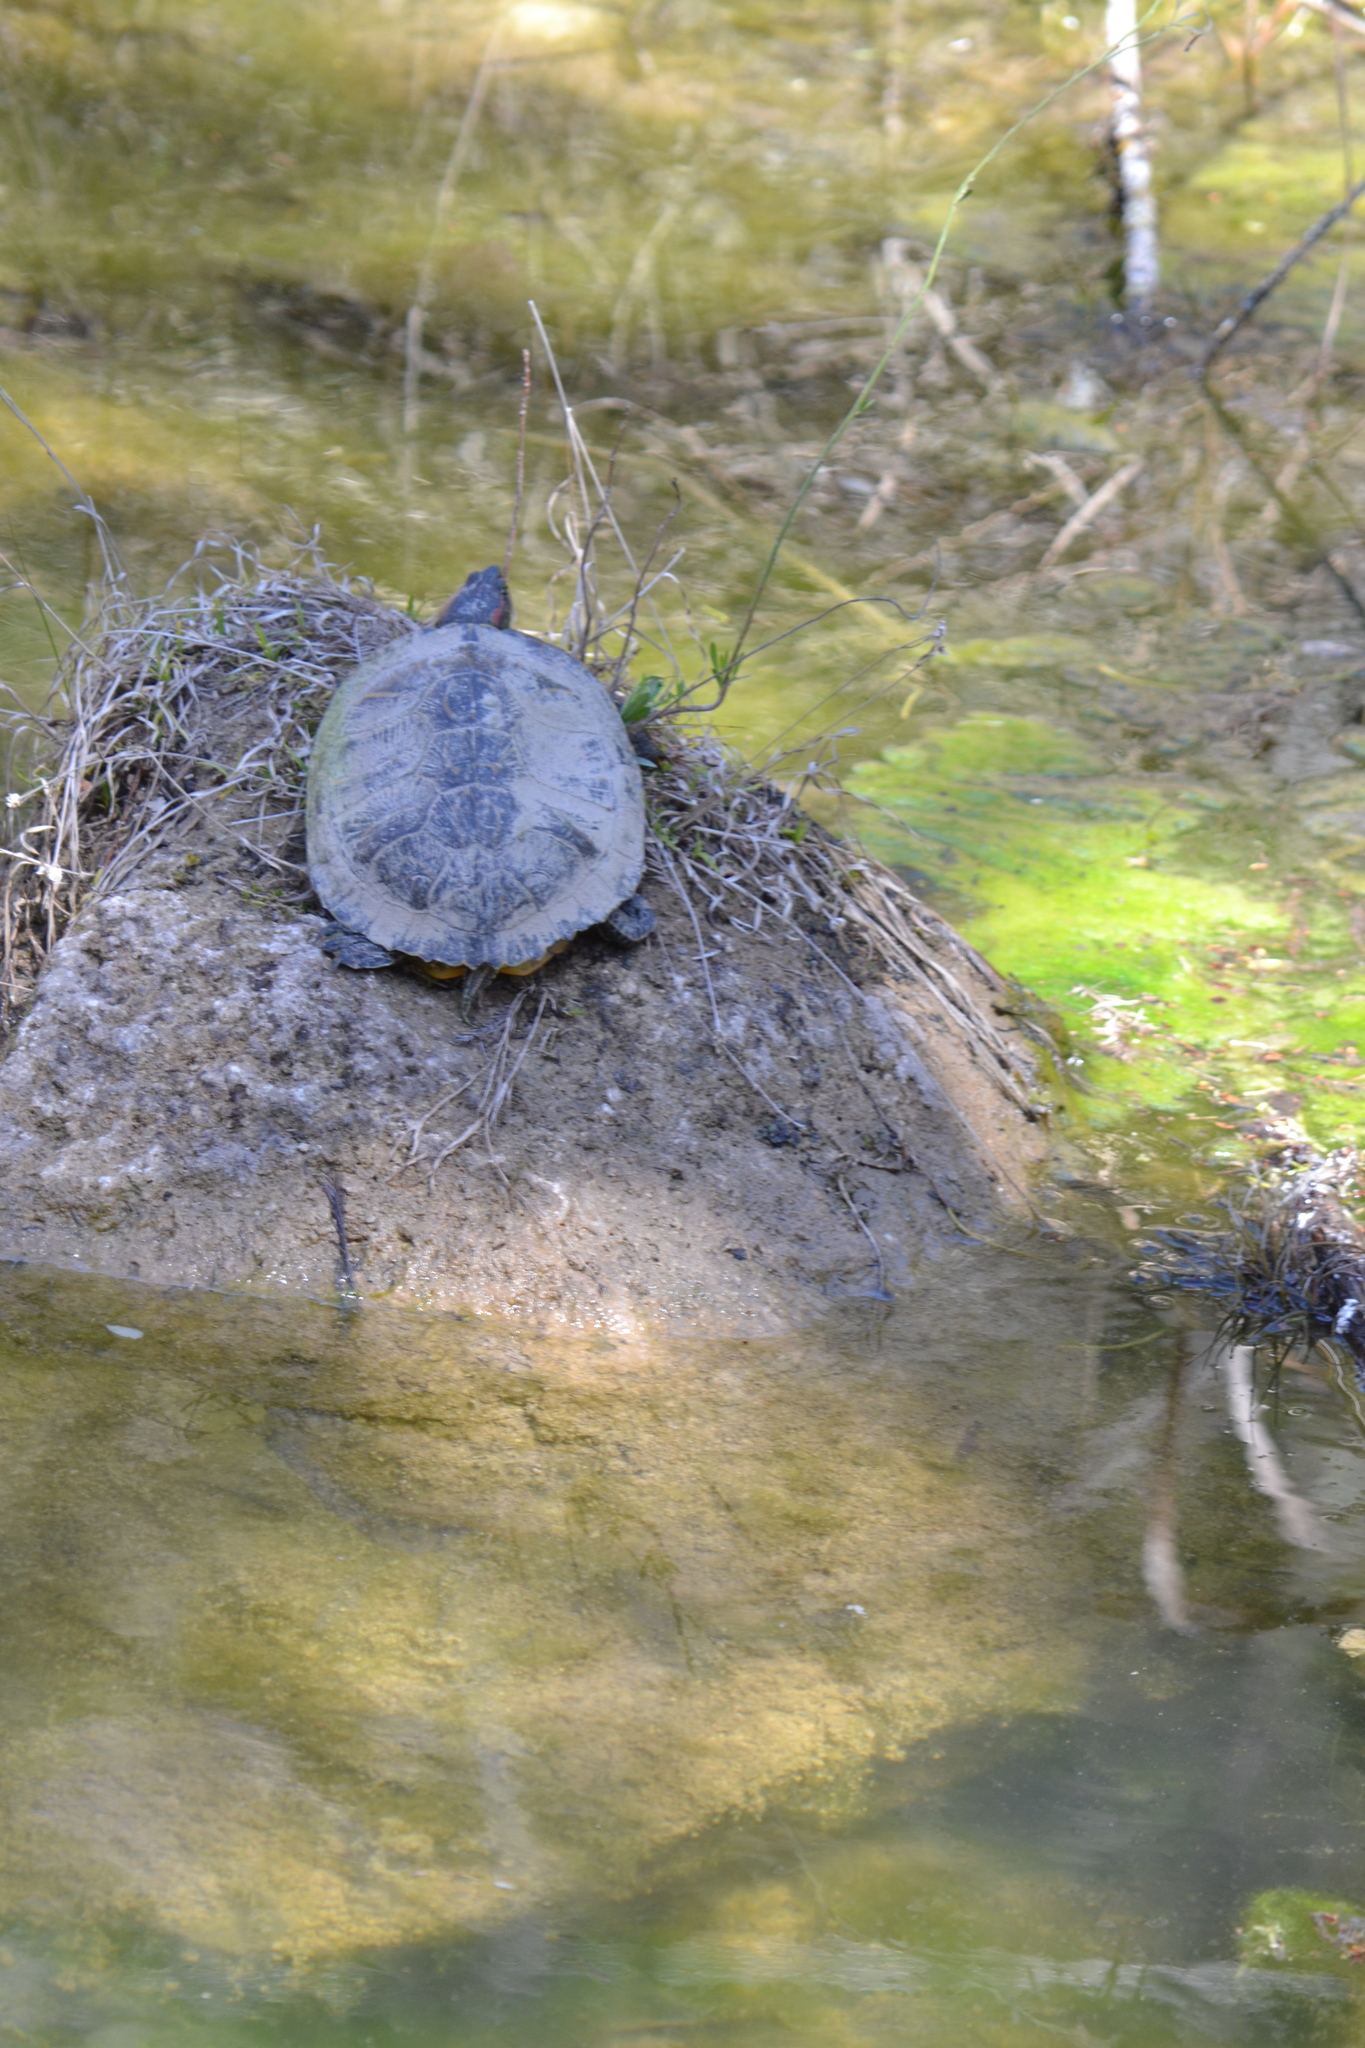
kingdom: Animalia
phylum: Chordata
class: Testudines
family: Emydidae
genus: Trachemys
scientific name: Trachemys scripta
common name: Slider
